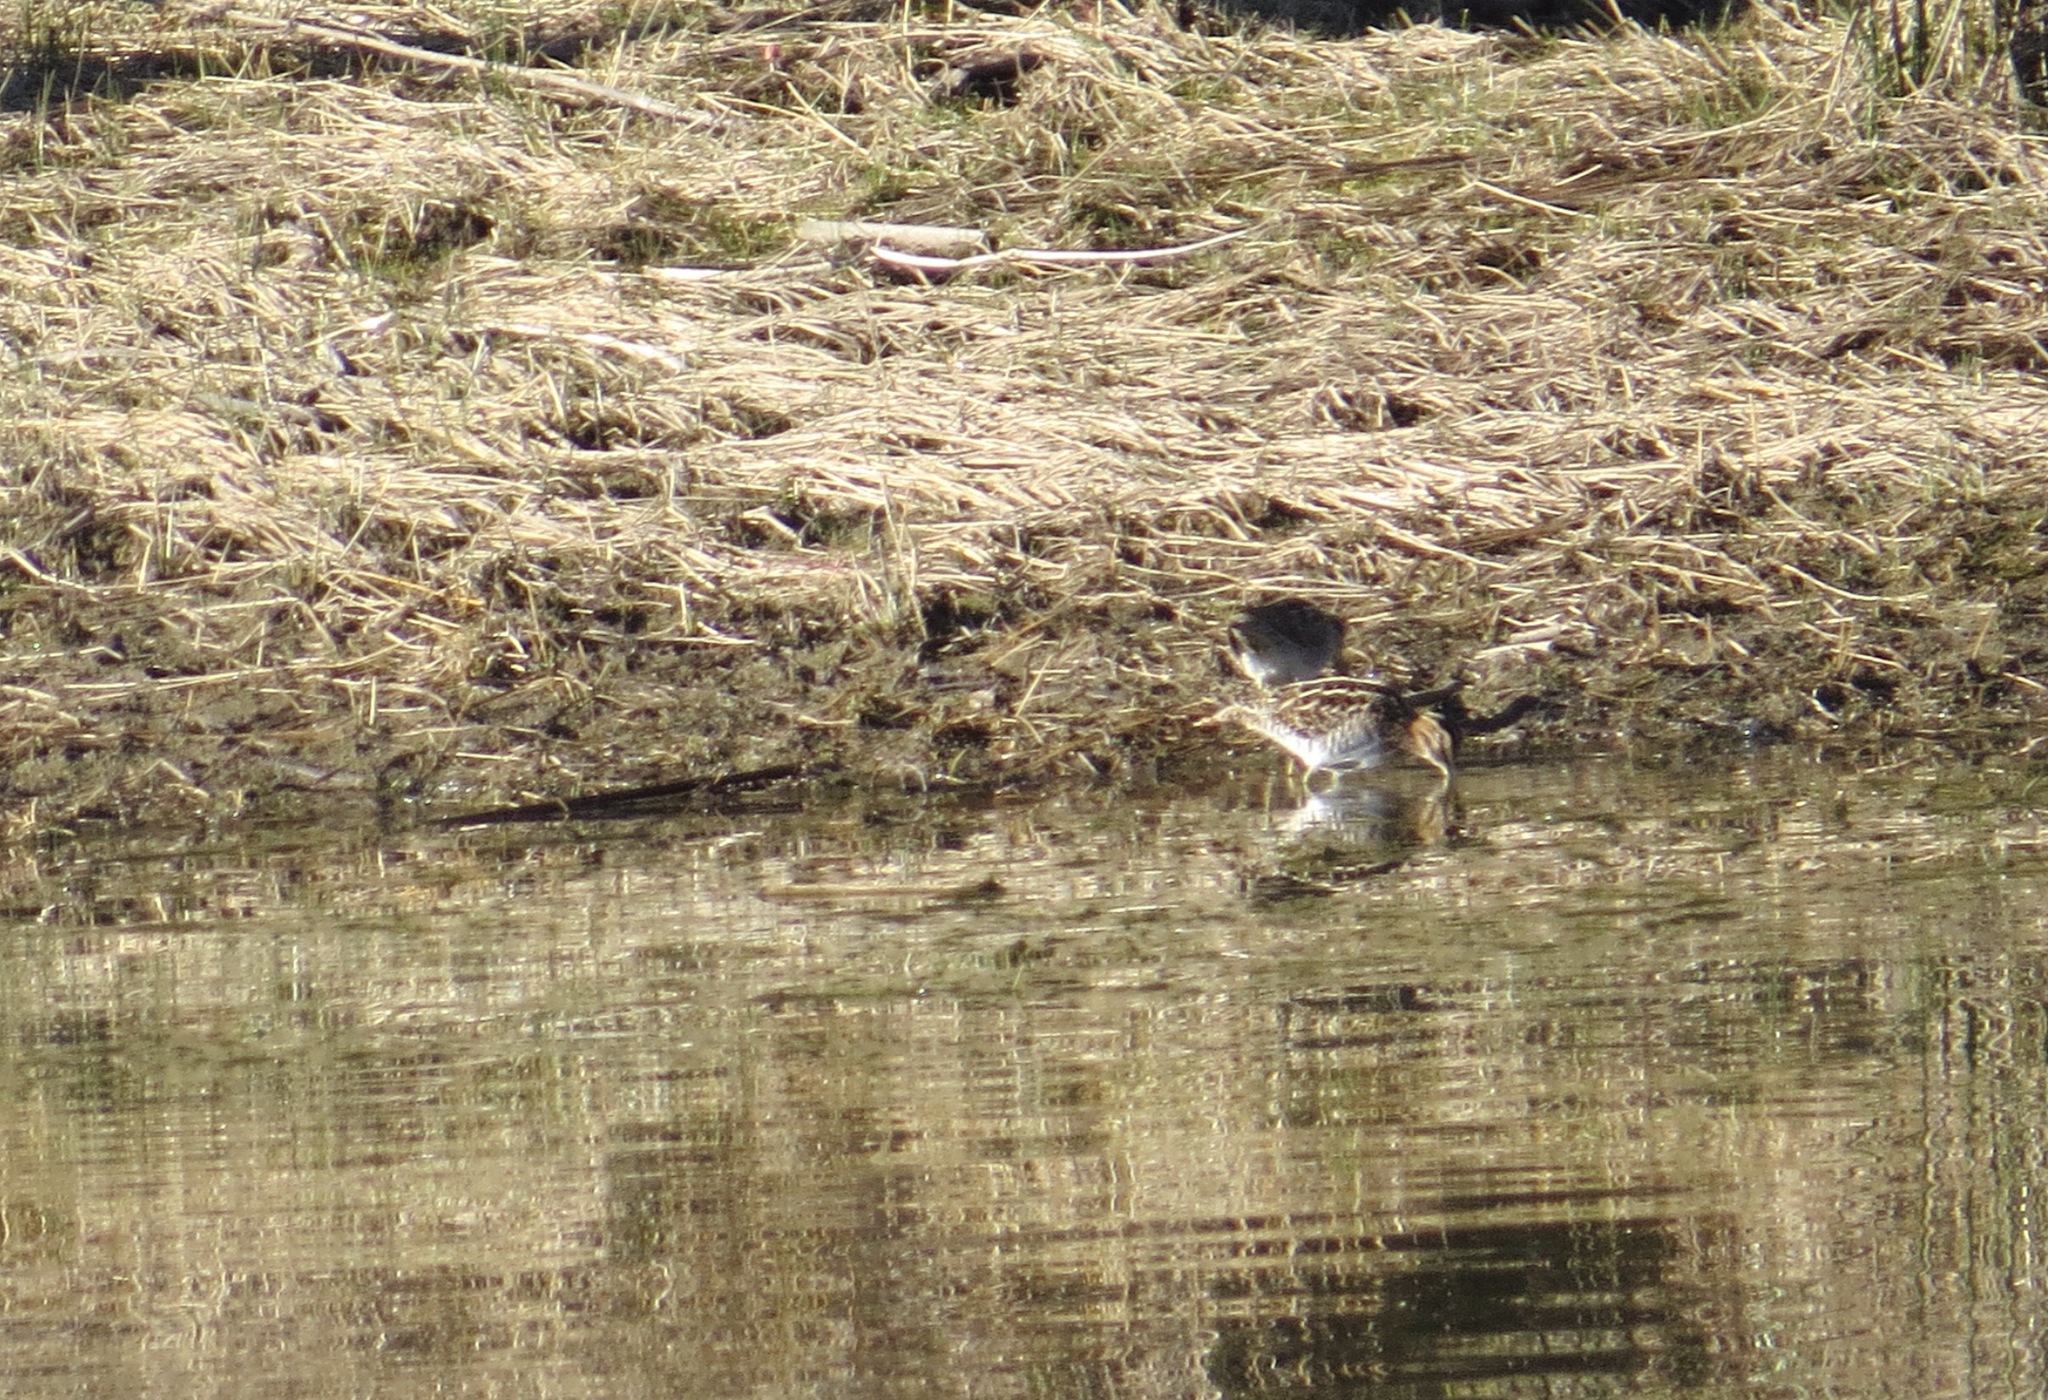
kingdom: Animalia
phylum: Chordata
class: Aves
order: Charadriiformes
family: Scolopacidae
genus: Gallinago
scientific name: Gallinago delicata
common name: Wilson's snipe
